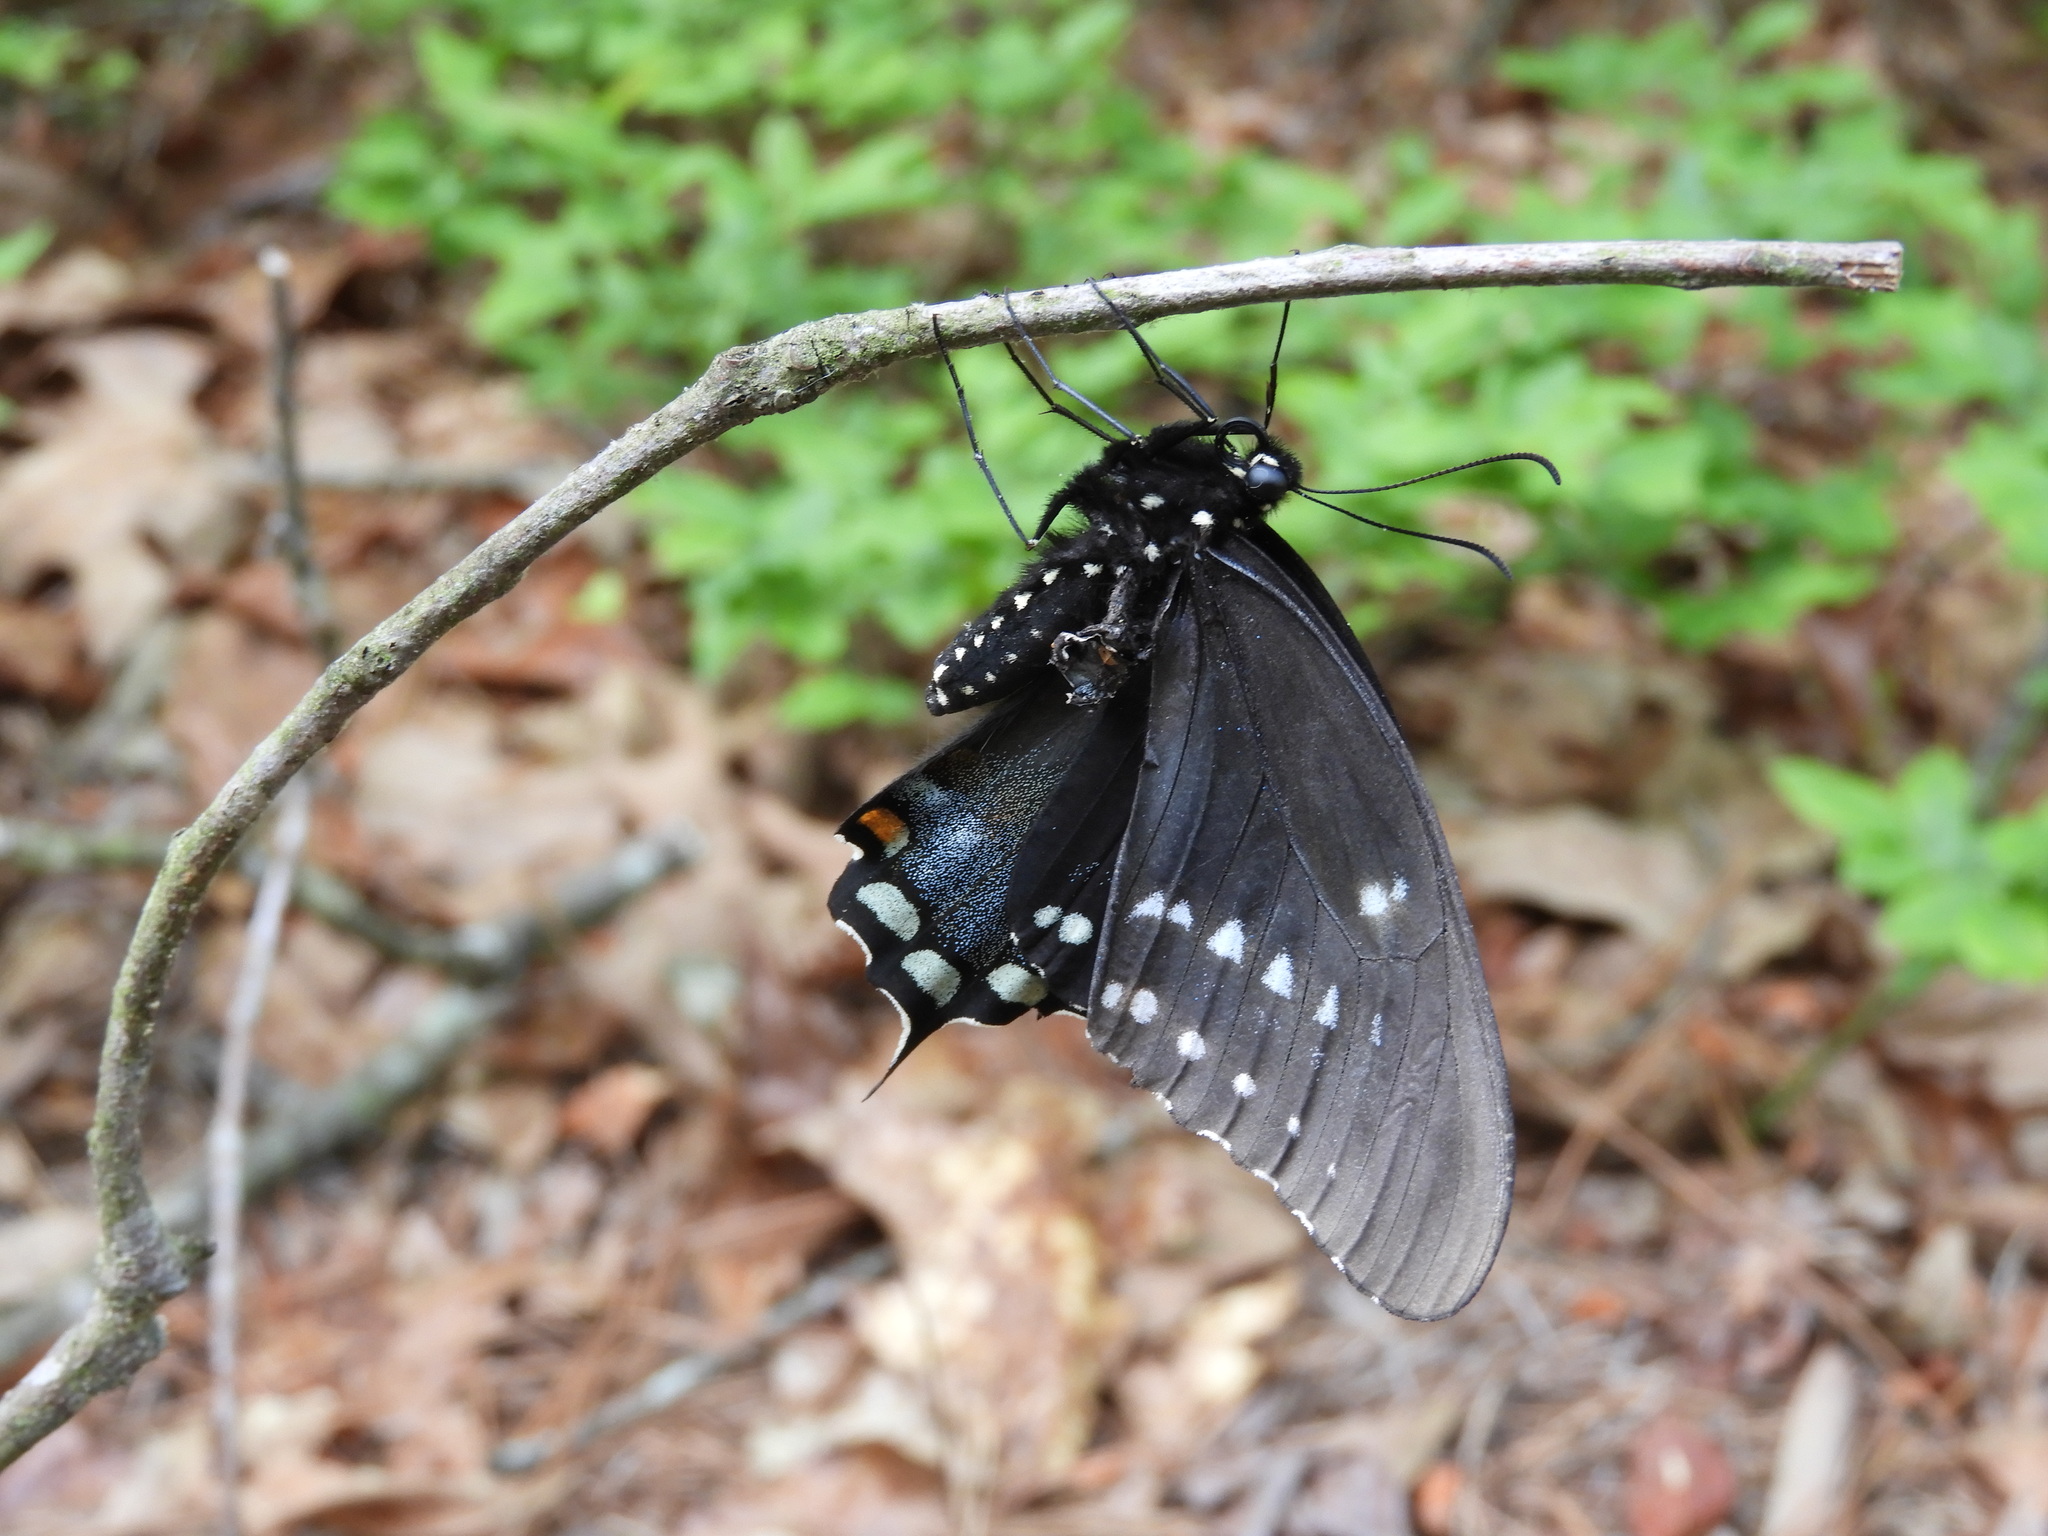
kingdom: Animalia
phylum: Arthropoda
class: Insecta
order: Lepidoptera
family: Papilionidae
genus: Papilio
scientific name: Papilio troilus
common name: Spicebush swallowtail
